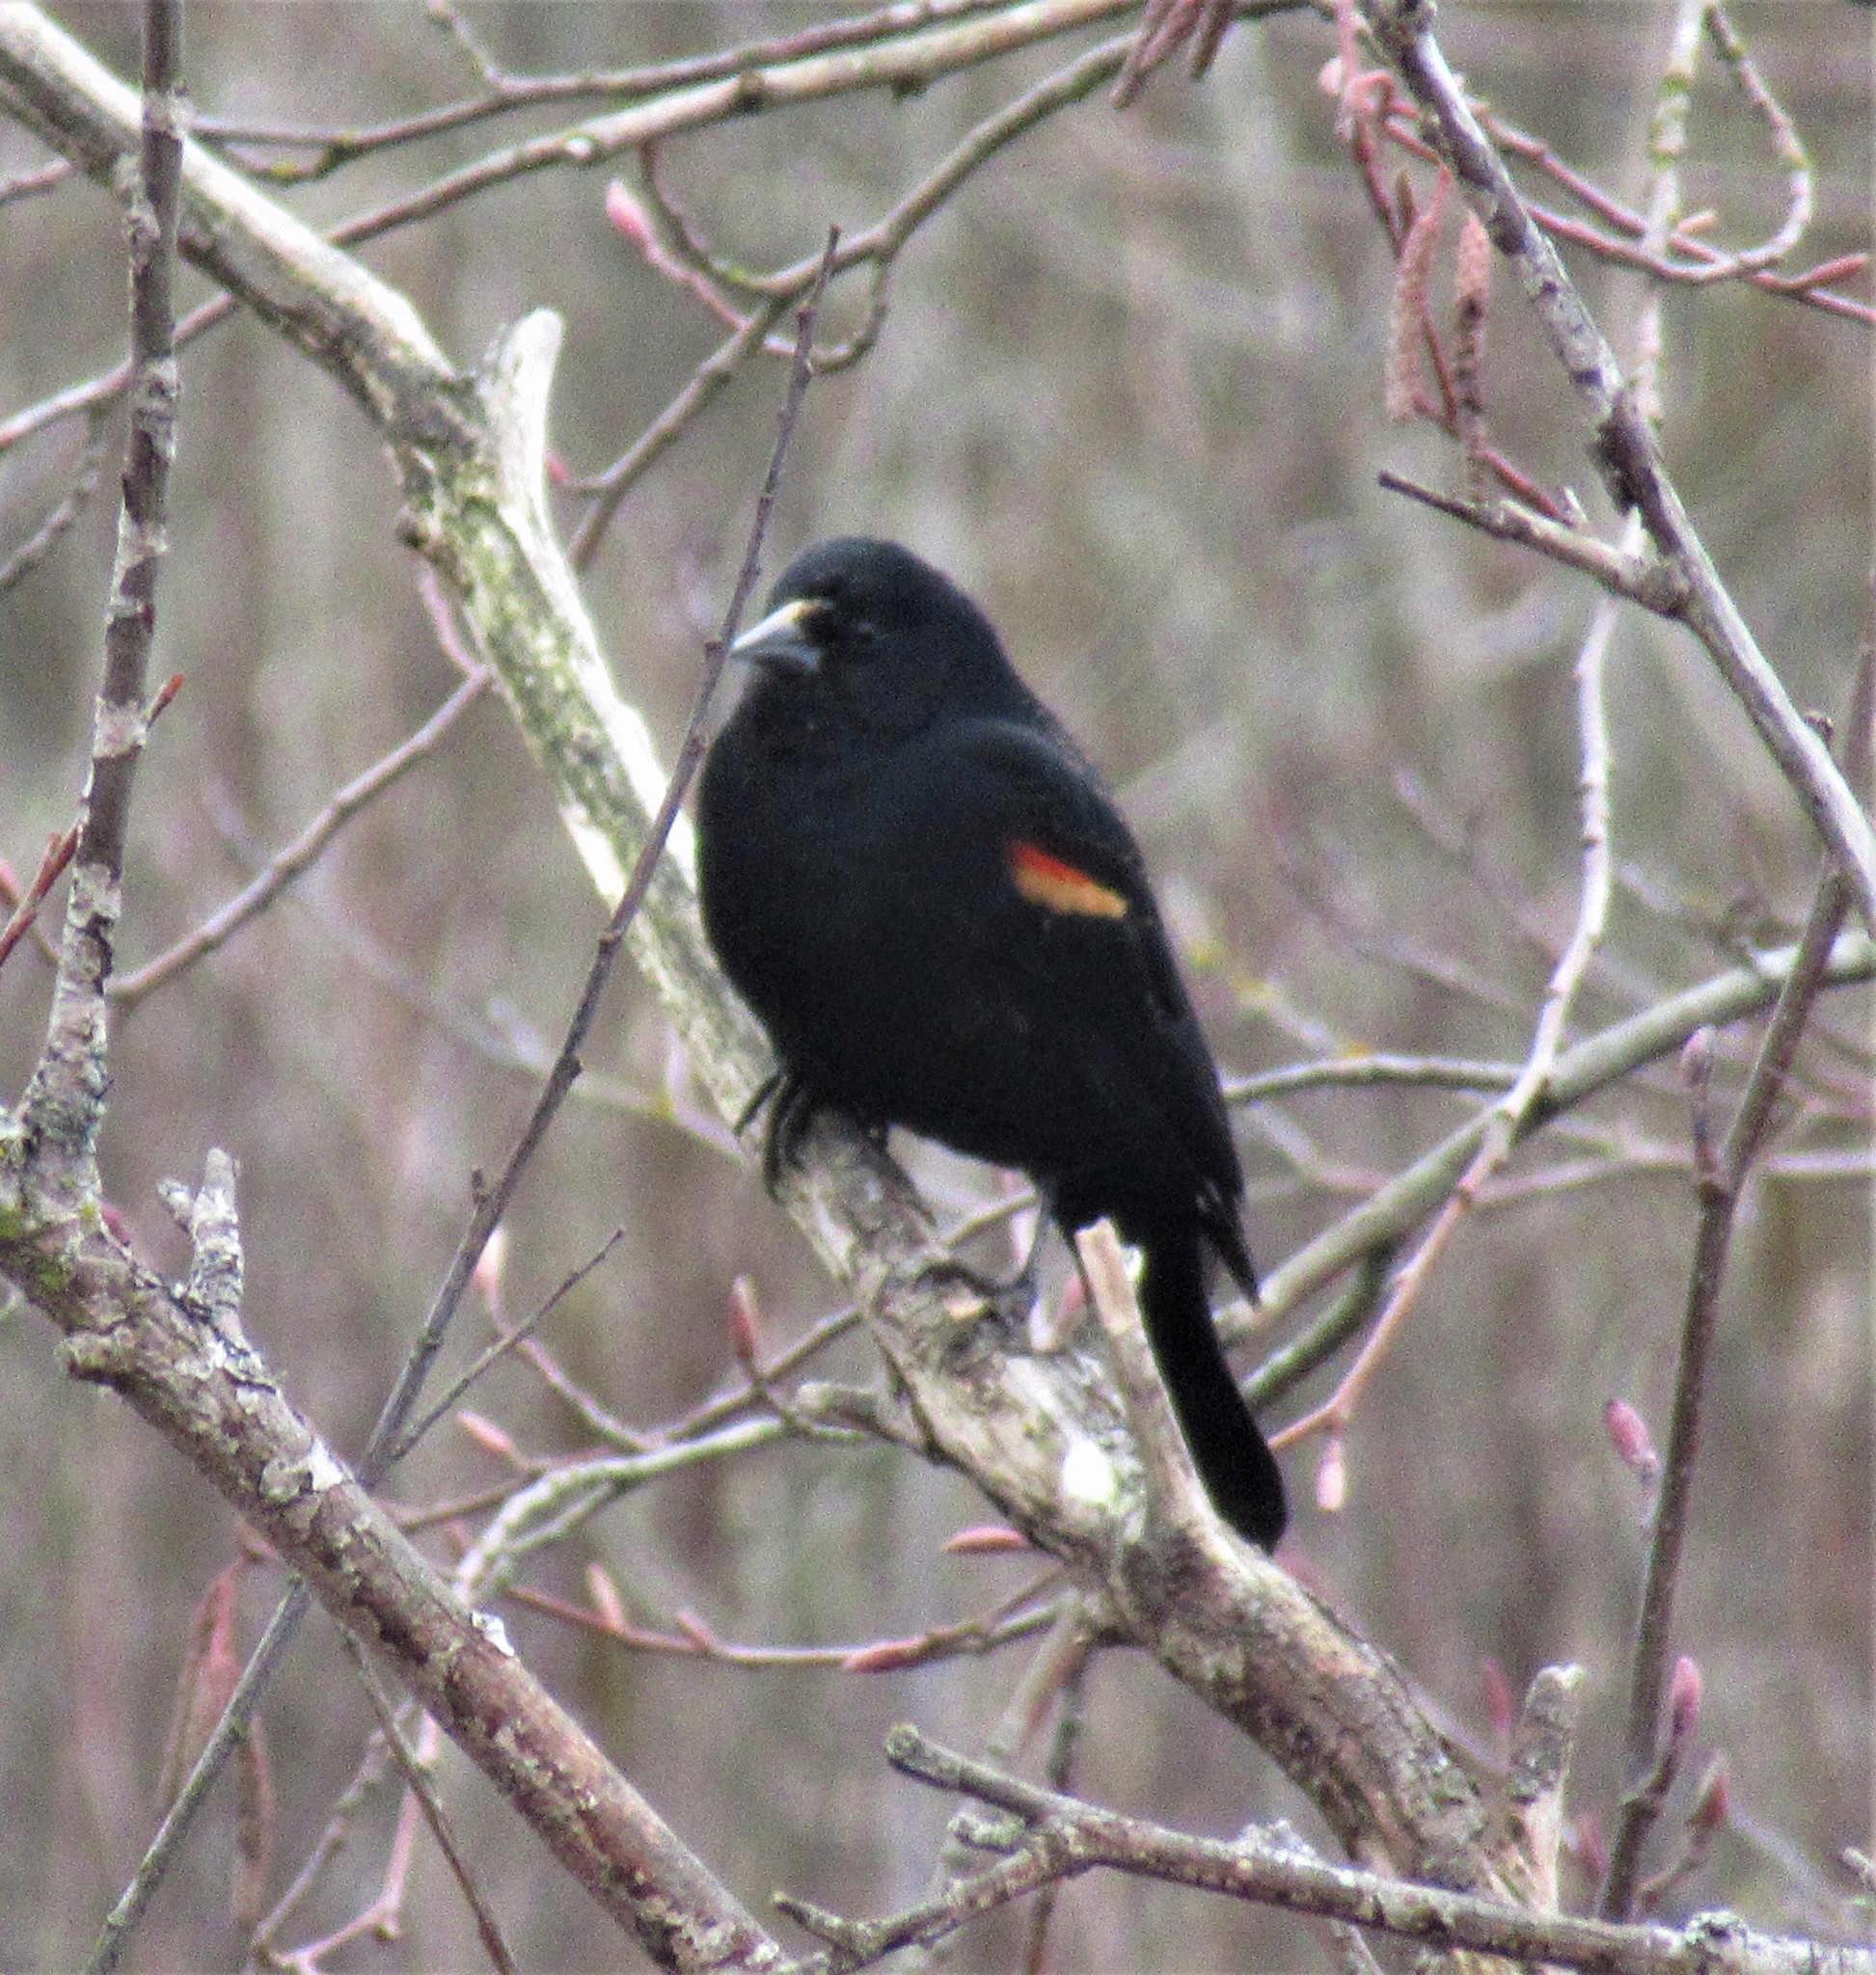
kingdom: Animalia
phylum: Chordata
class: Aves
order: Passeriformes
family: Icteridae
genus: Agelaius
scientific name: Agelaius phoeniceus
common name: Red-winged blackbird
